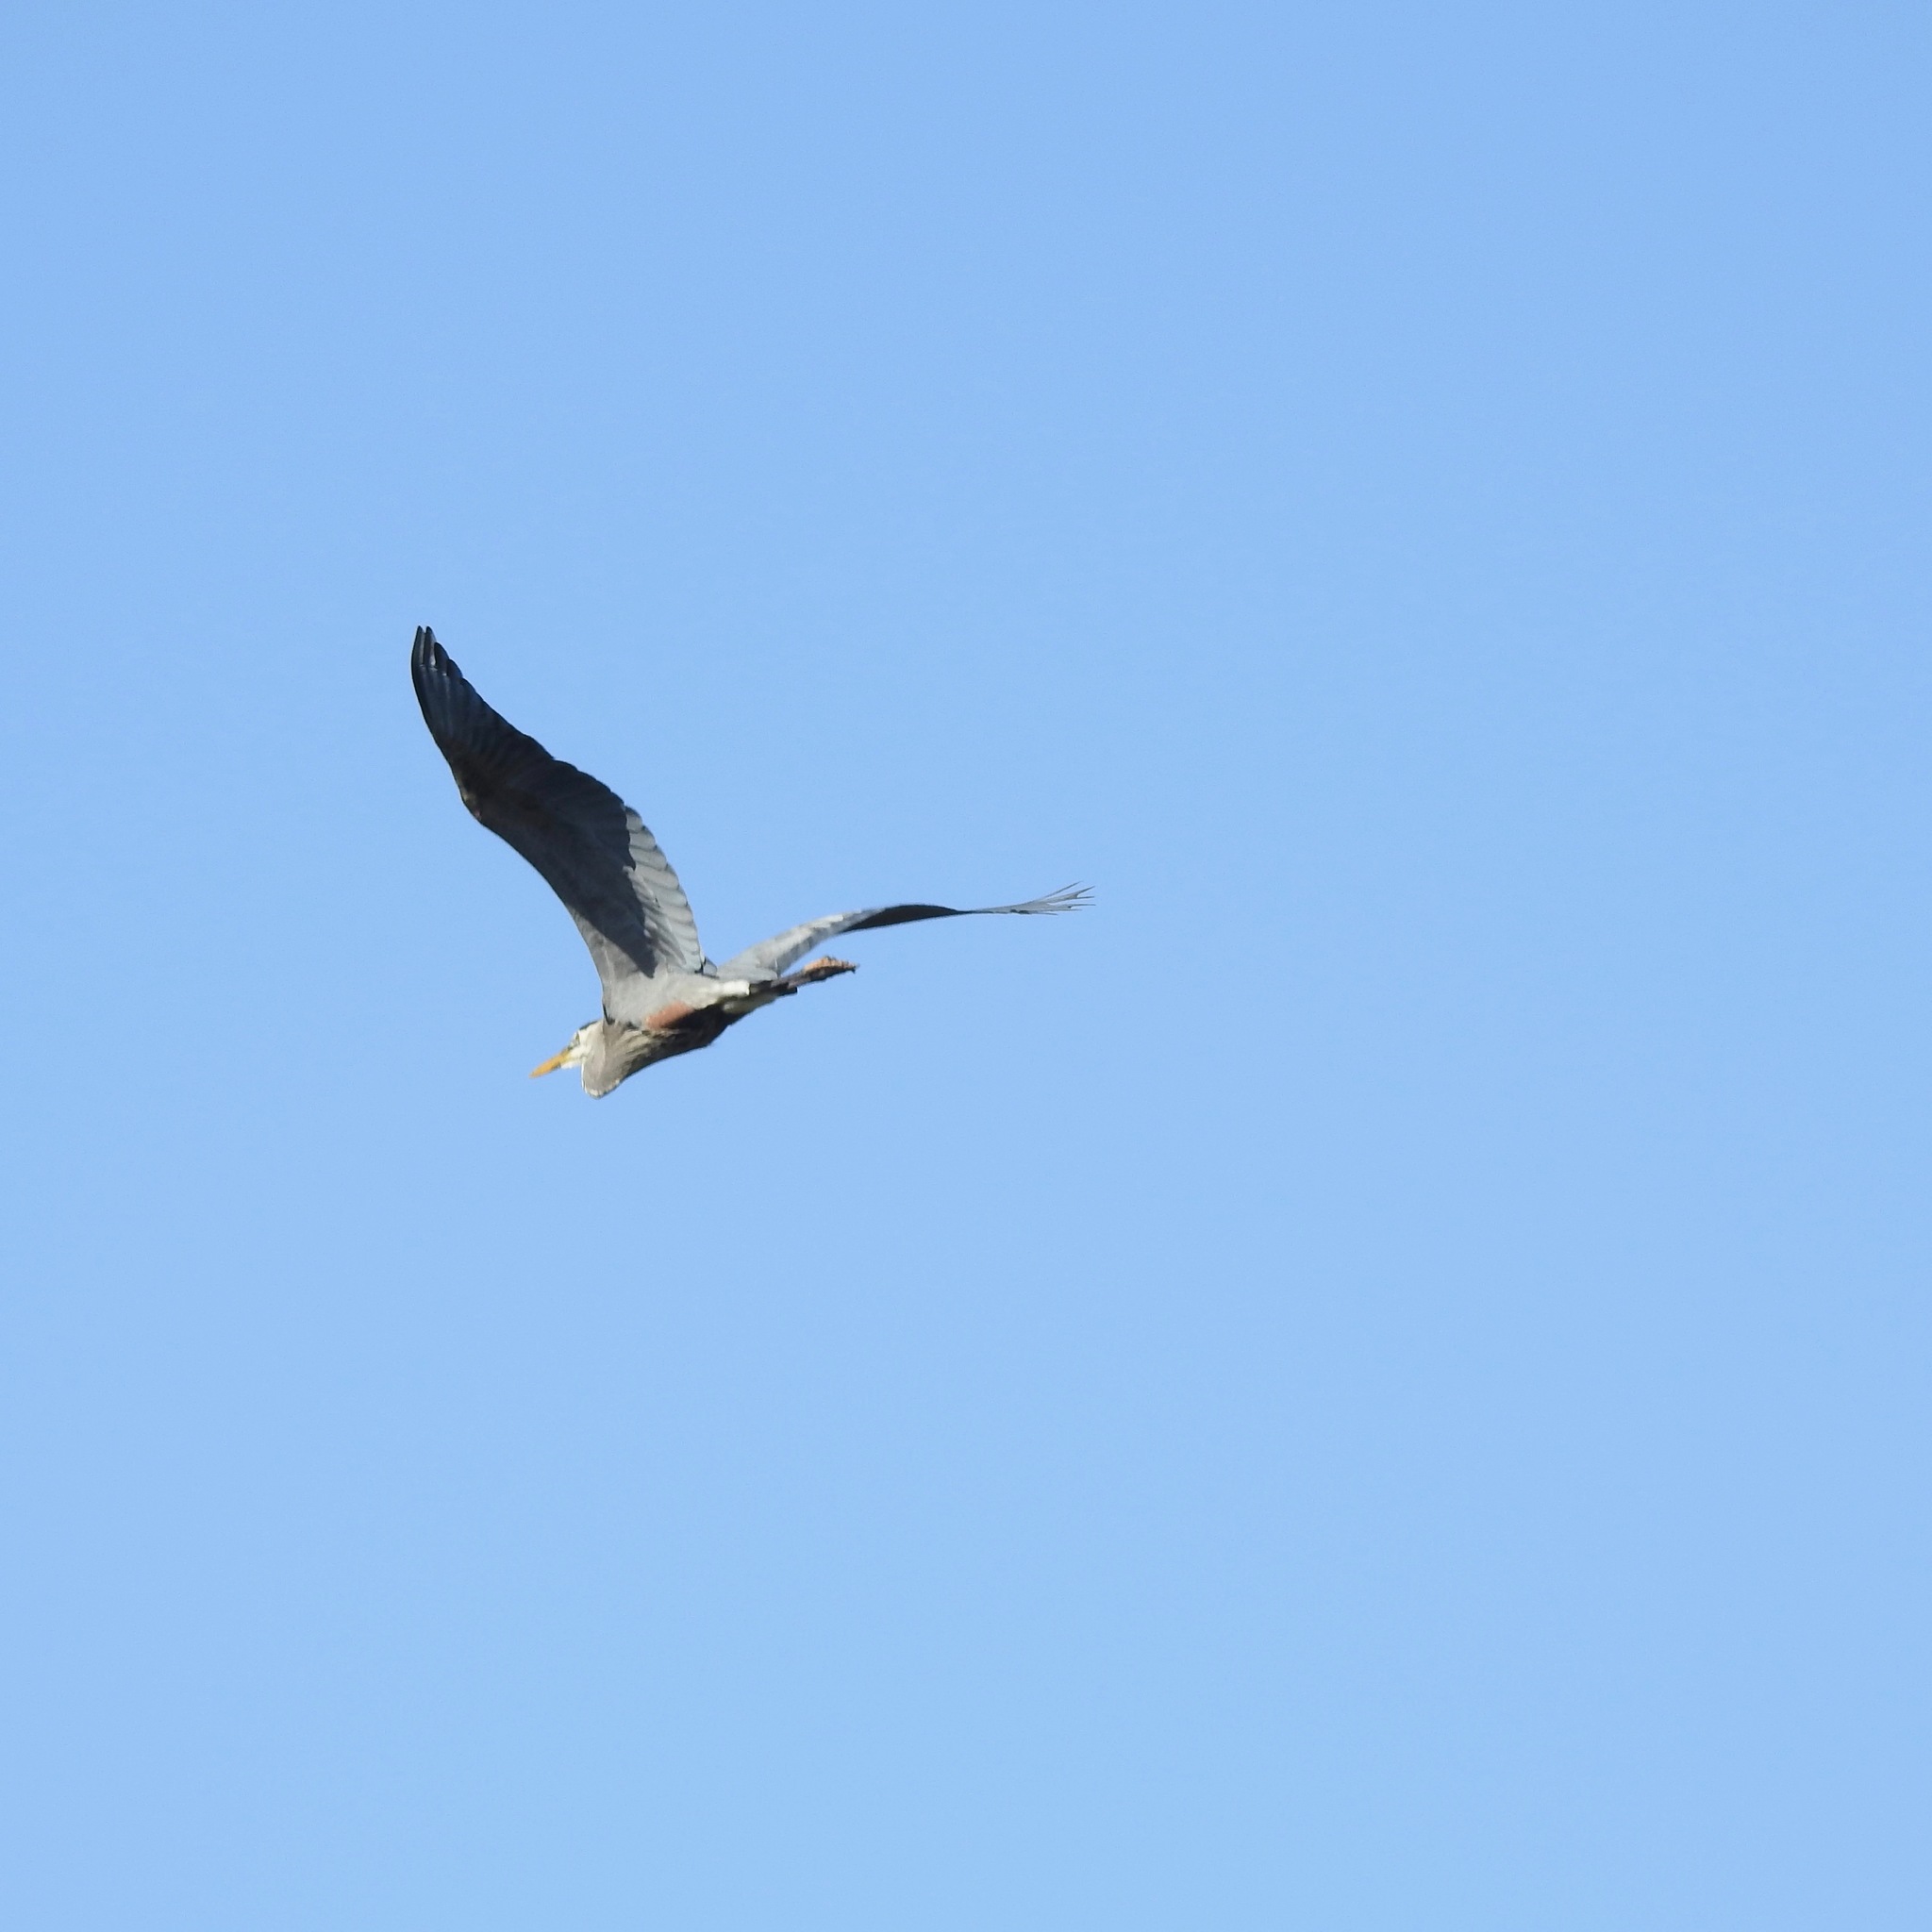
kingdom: Animalia
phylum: Chordata
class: Aves
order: Pelecaniformes
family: Ardeidae
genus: Ardea
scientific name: Ardea herodias
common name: Great blue heron
